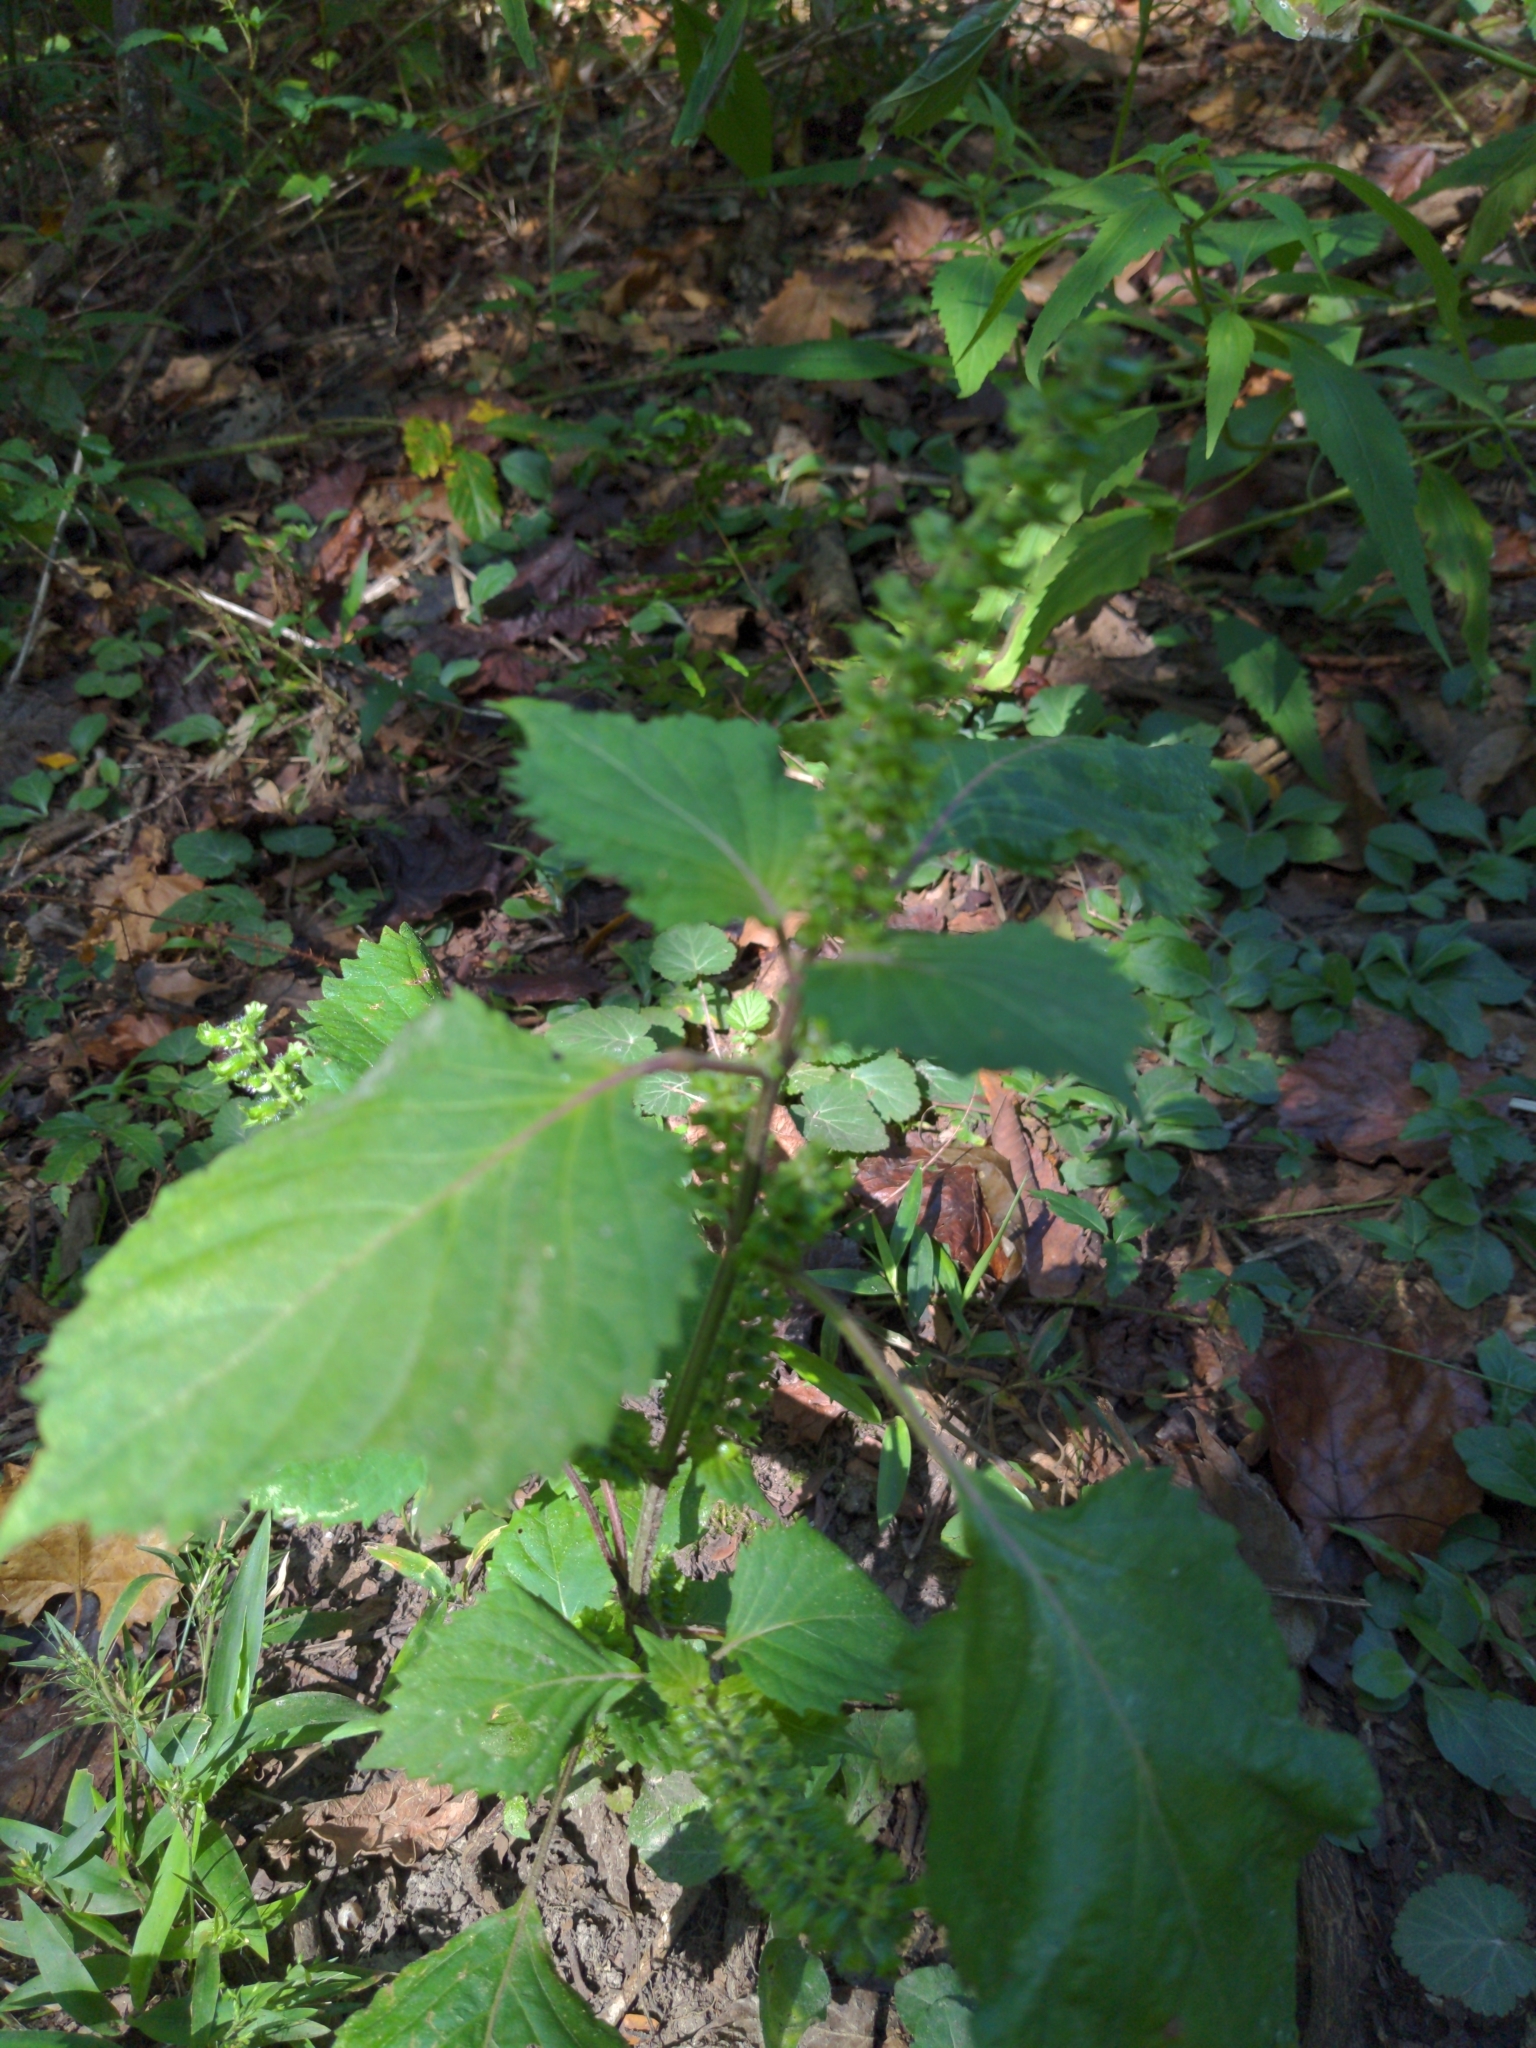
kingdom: Plantae
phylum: Tracheophyta
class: Magnoliopsida
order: Lamiales
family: Lamiaceae
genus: Perilla
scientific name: Perilla frutescens
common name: Perilla
